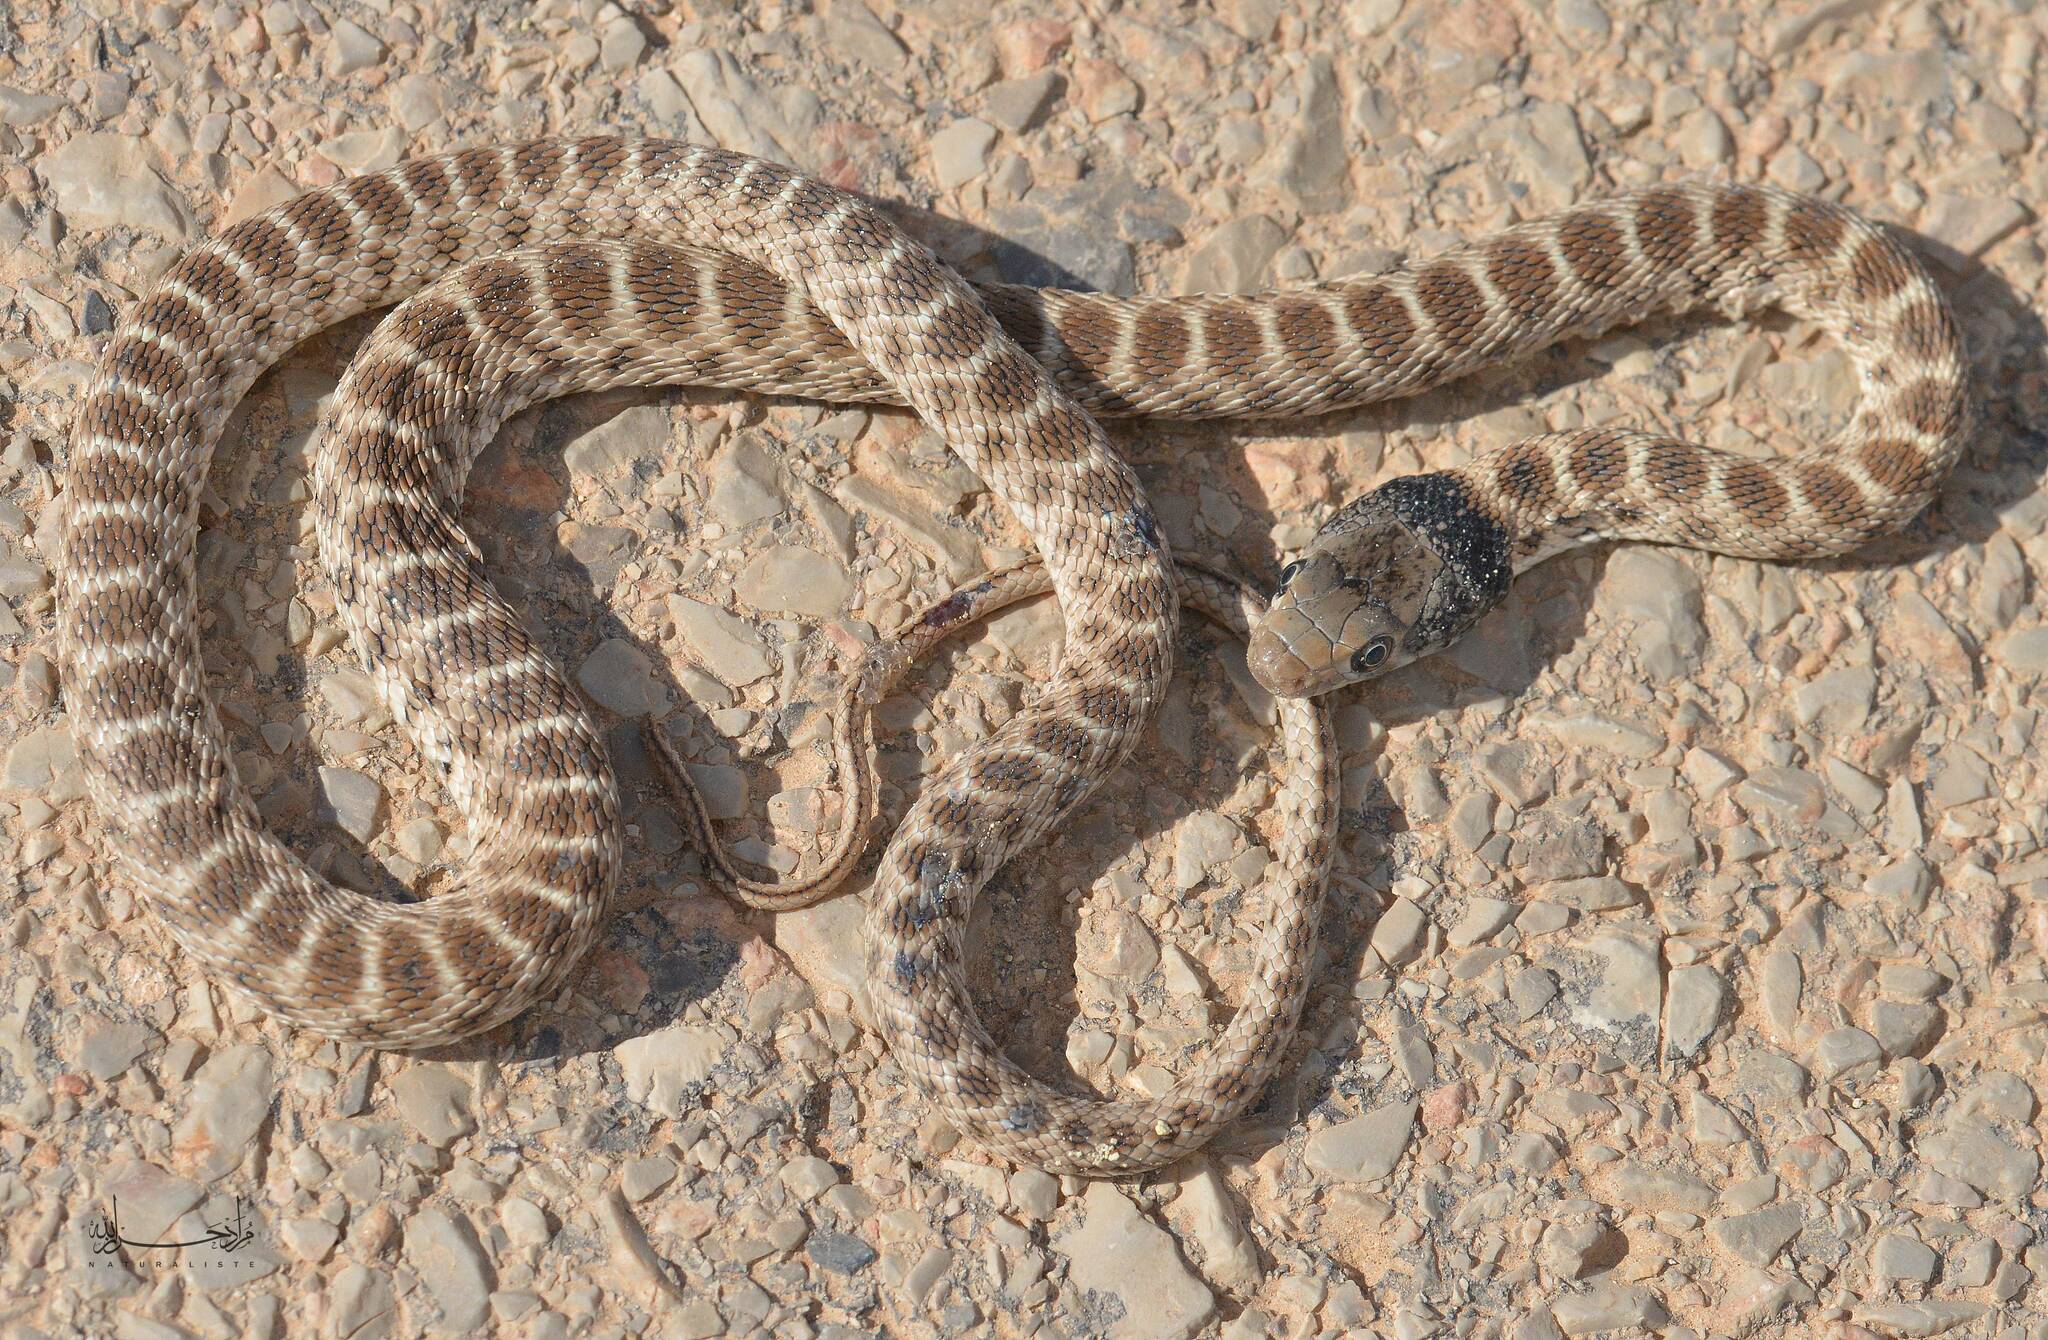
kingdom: Animalia
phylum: Chordata
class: Squamata
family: Colubridae
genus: Hemorrhois
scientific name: Hemorrhois algirus
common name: Algerian whip snake
